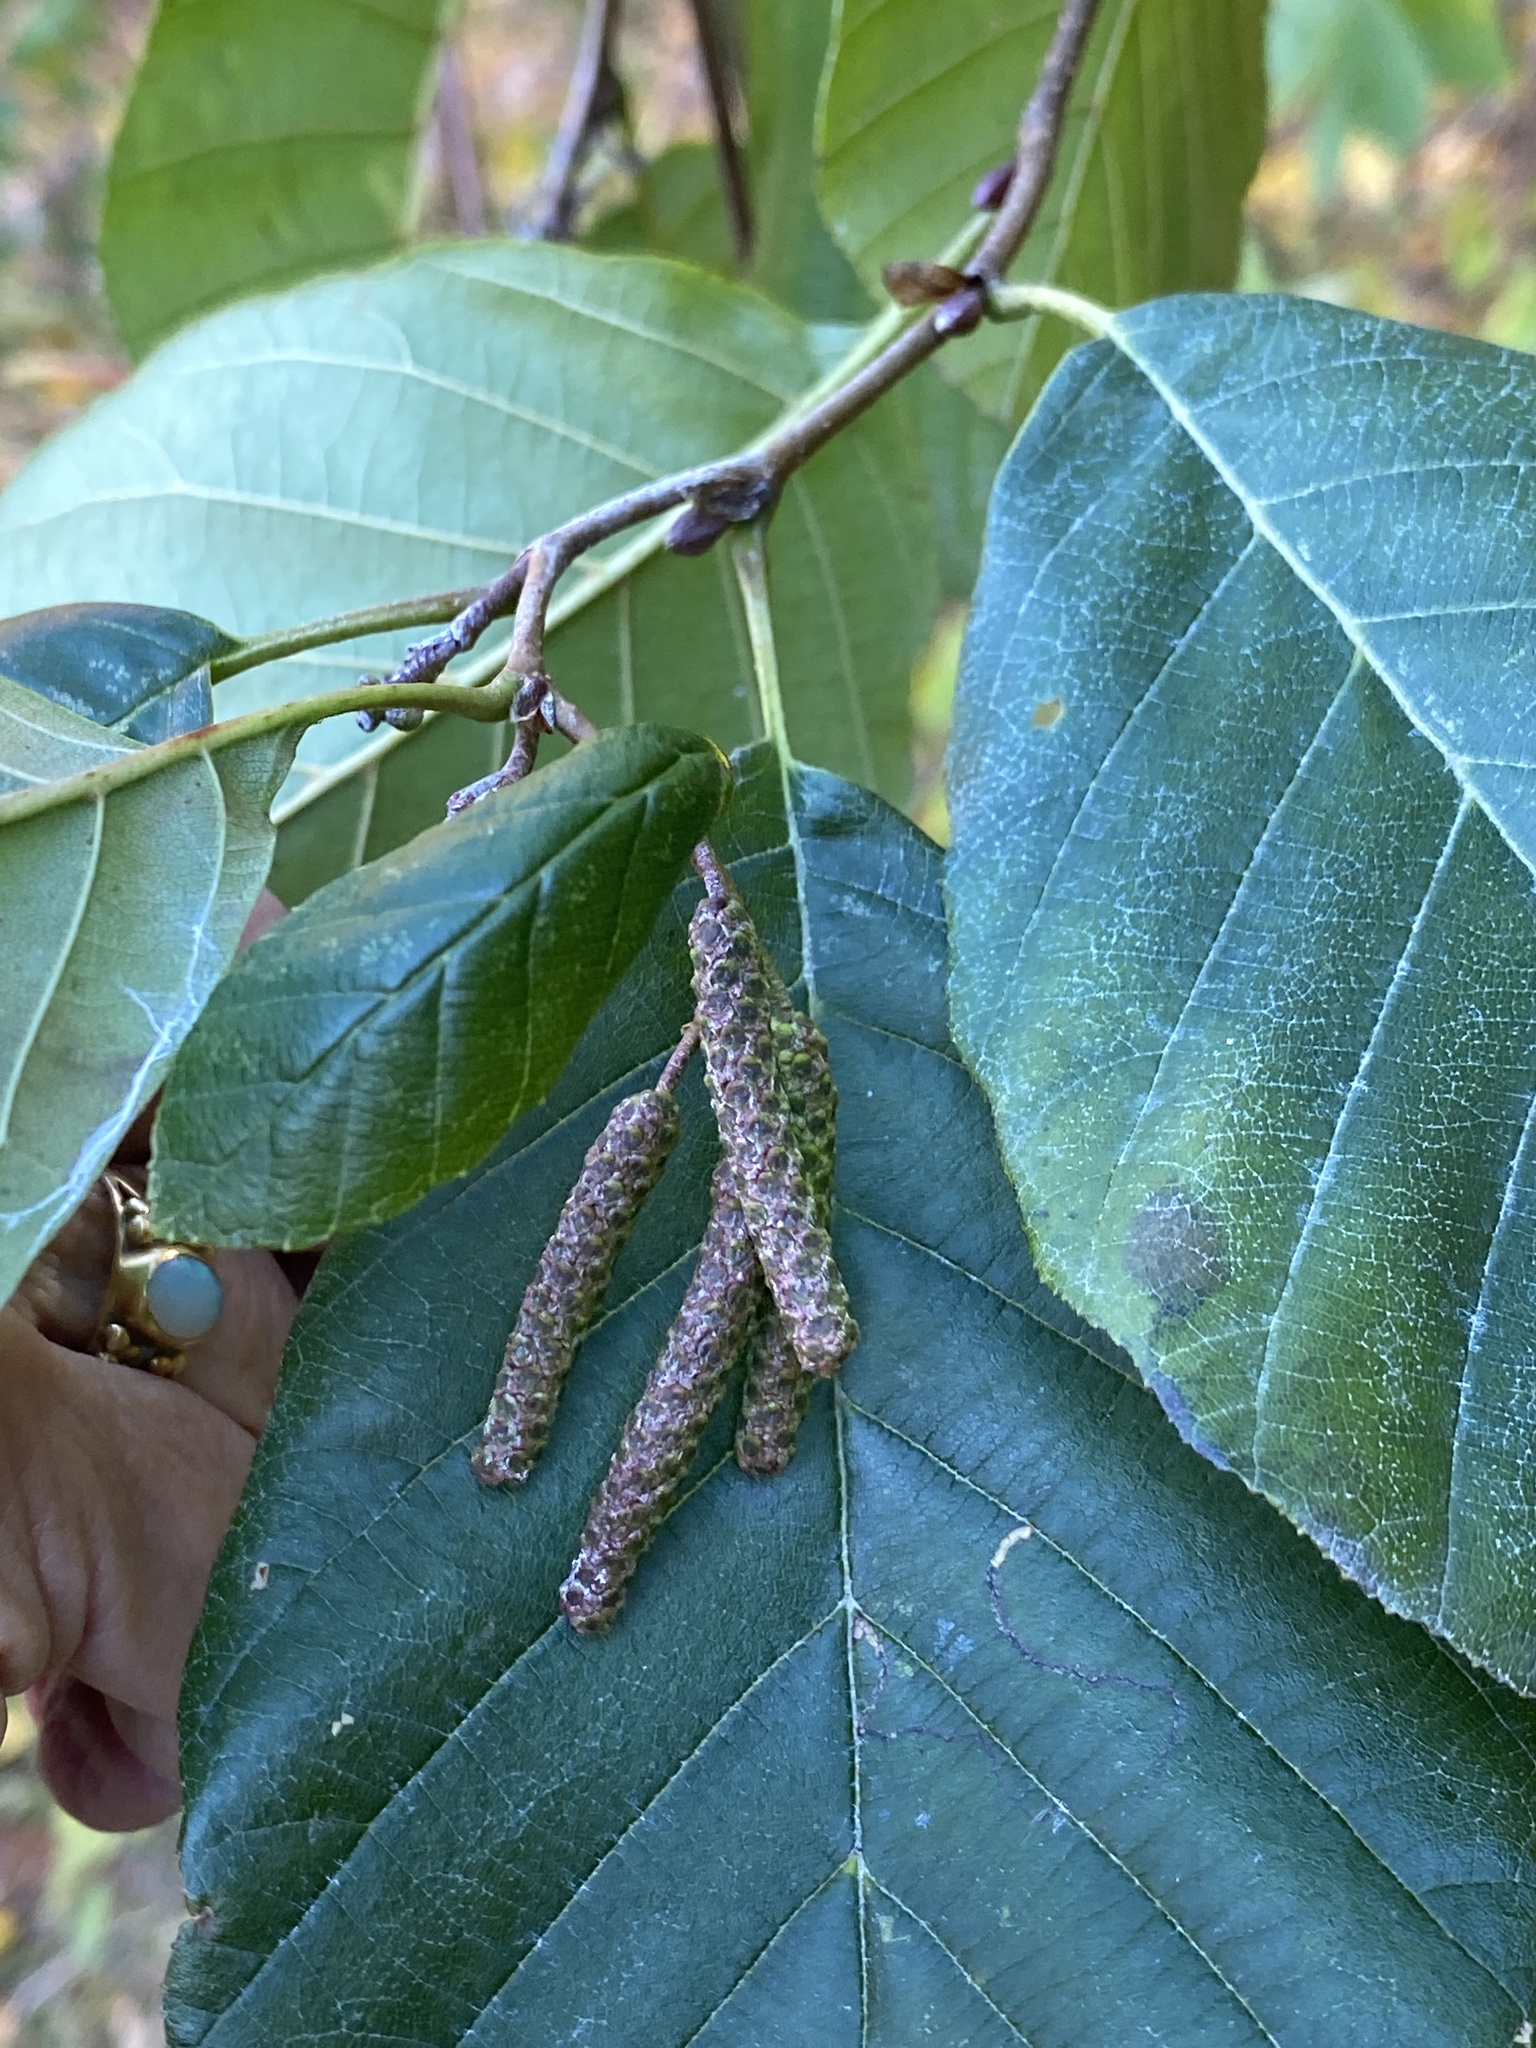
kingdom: Plantae
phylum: Tracheophyta
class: Magnoliopsida
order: Fagales
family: Betulaceae
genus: Alnus
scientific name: Alnus glutinosa
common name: Black alder
